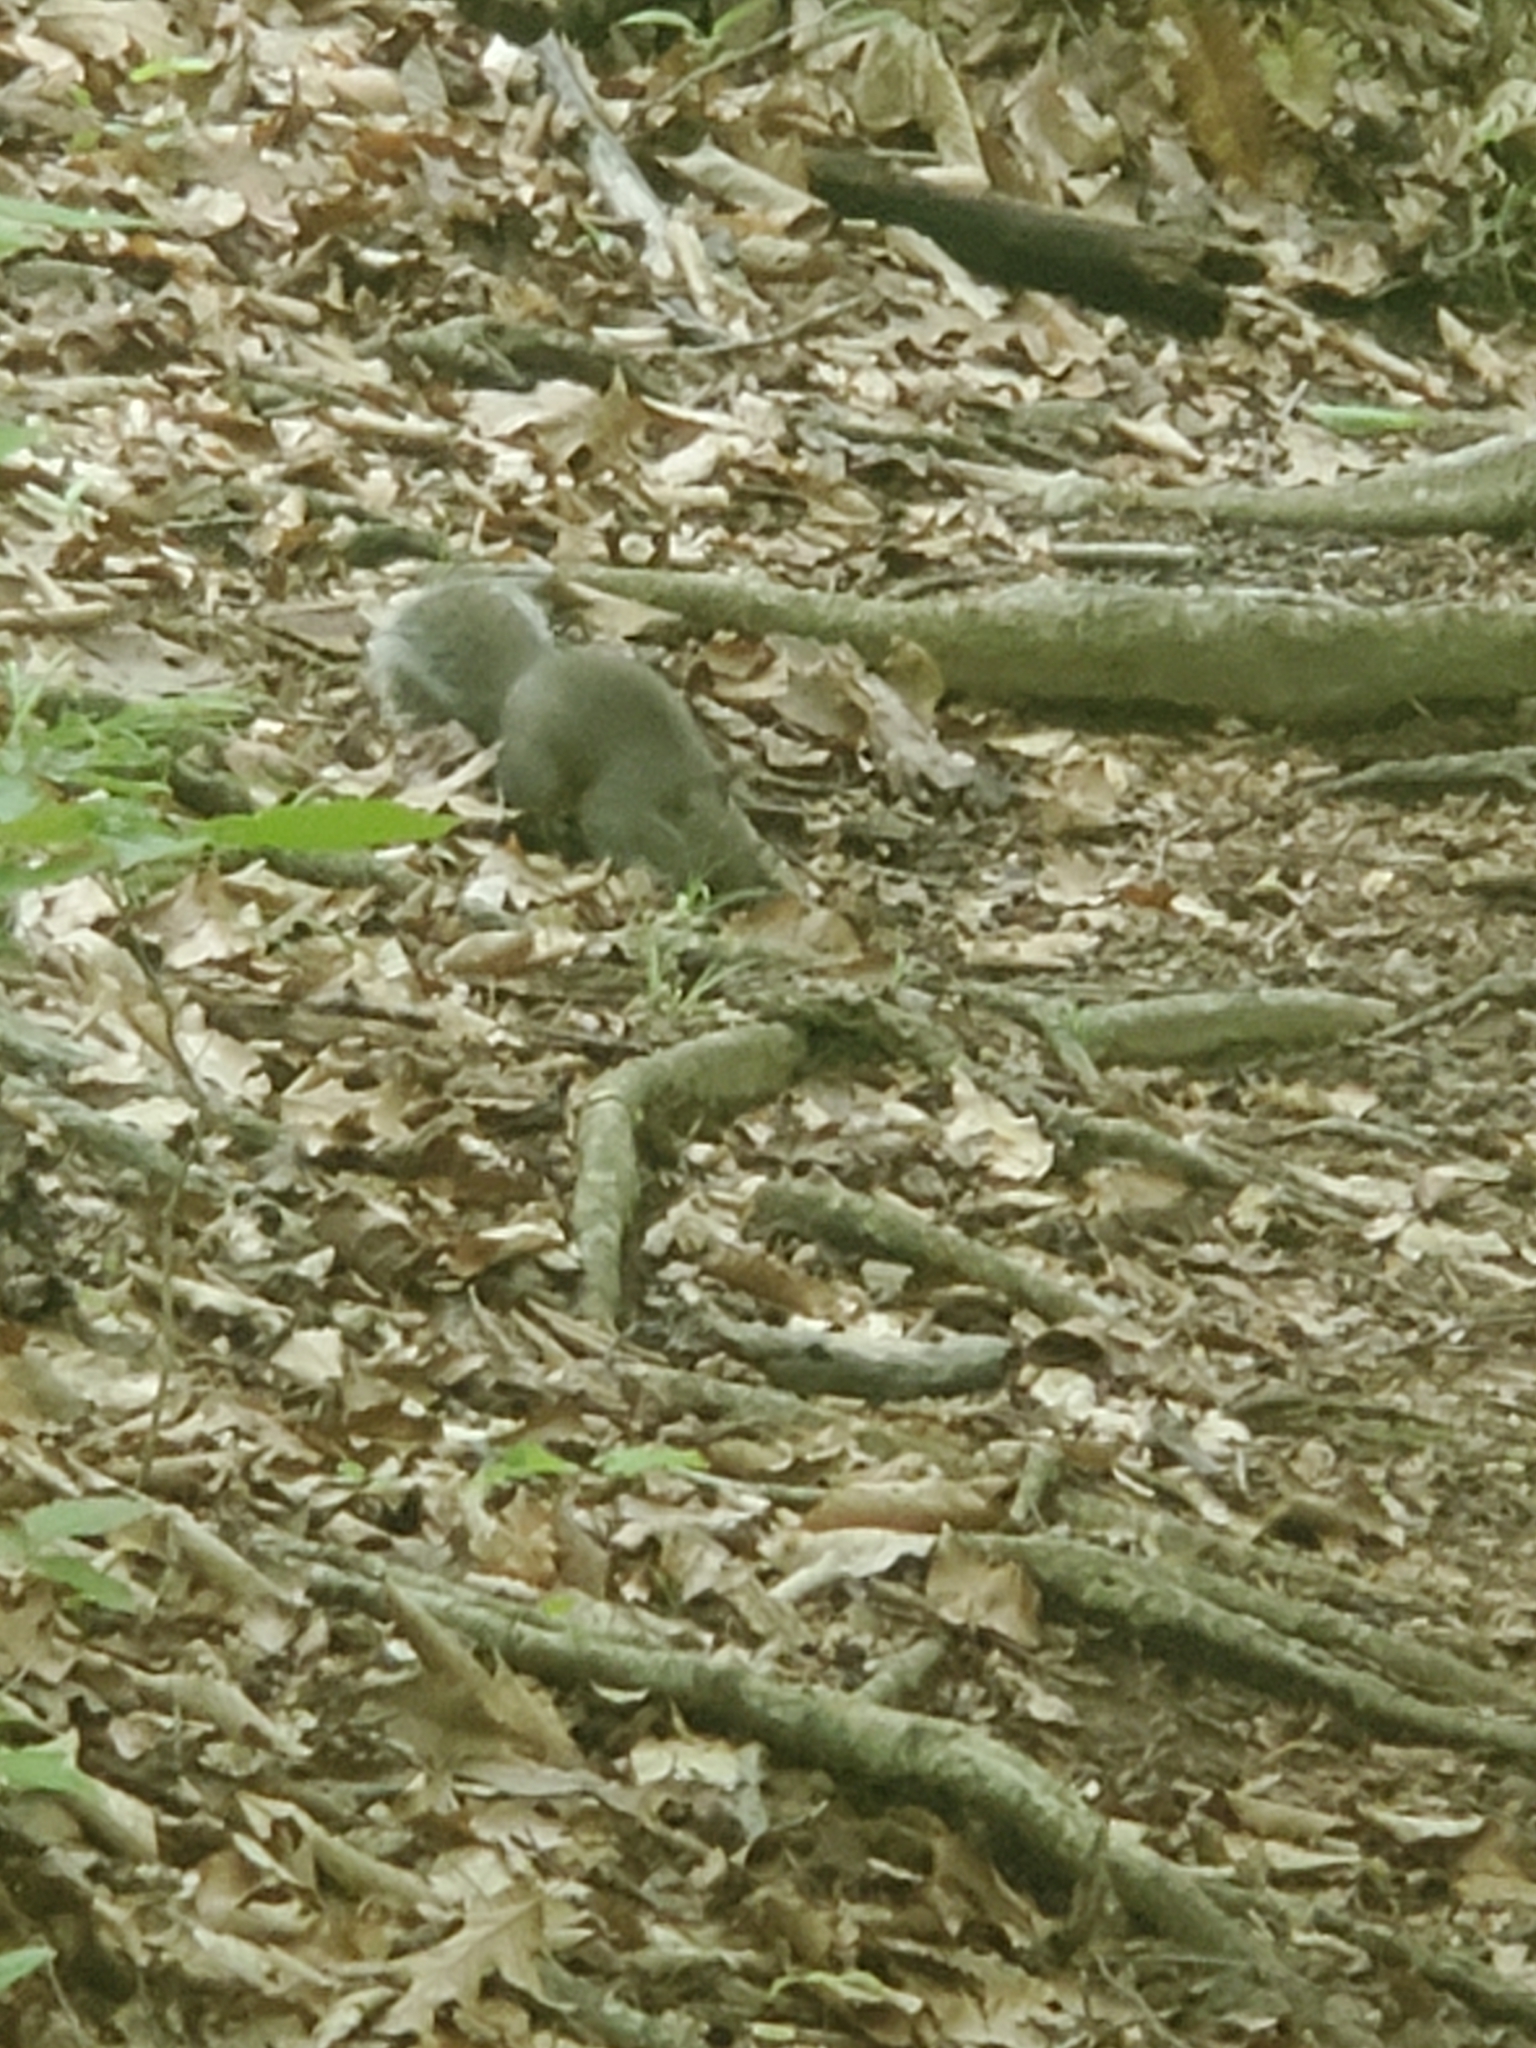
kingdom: Animalia
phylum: Chordata
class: Mammalia
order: Rodentia
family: Sciuridae
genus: Sciurus
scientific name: Sciurus carolinensis
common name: Eastern gray squirrel
